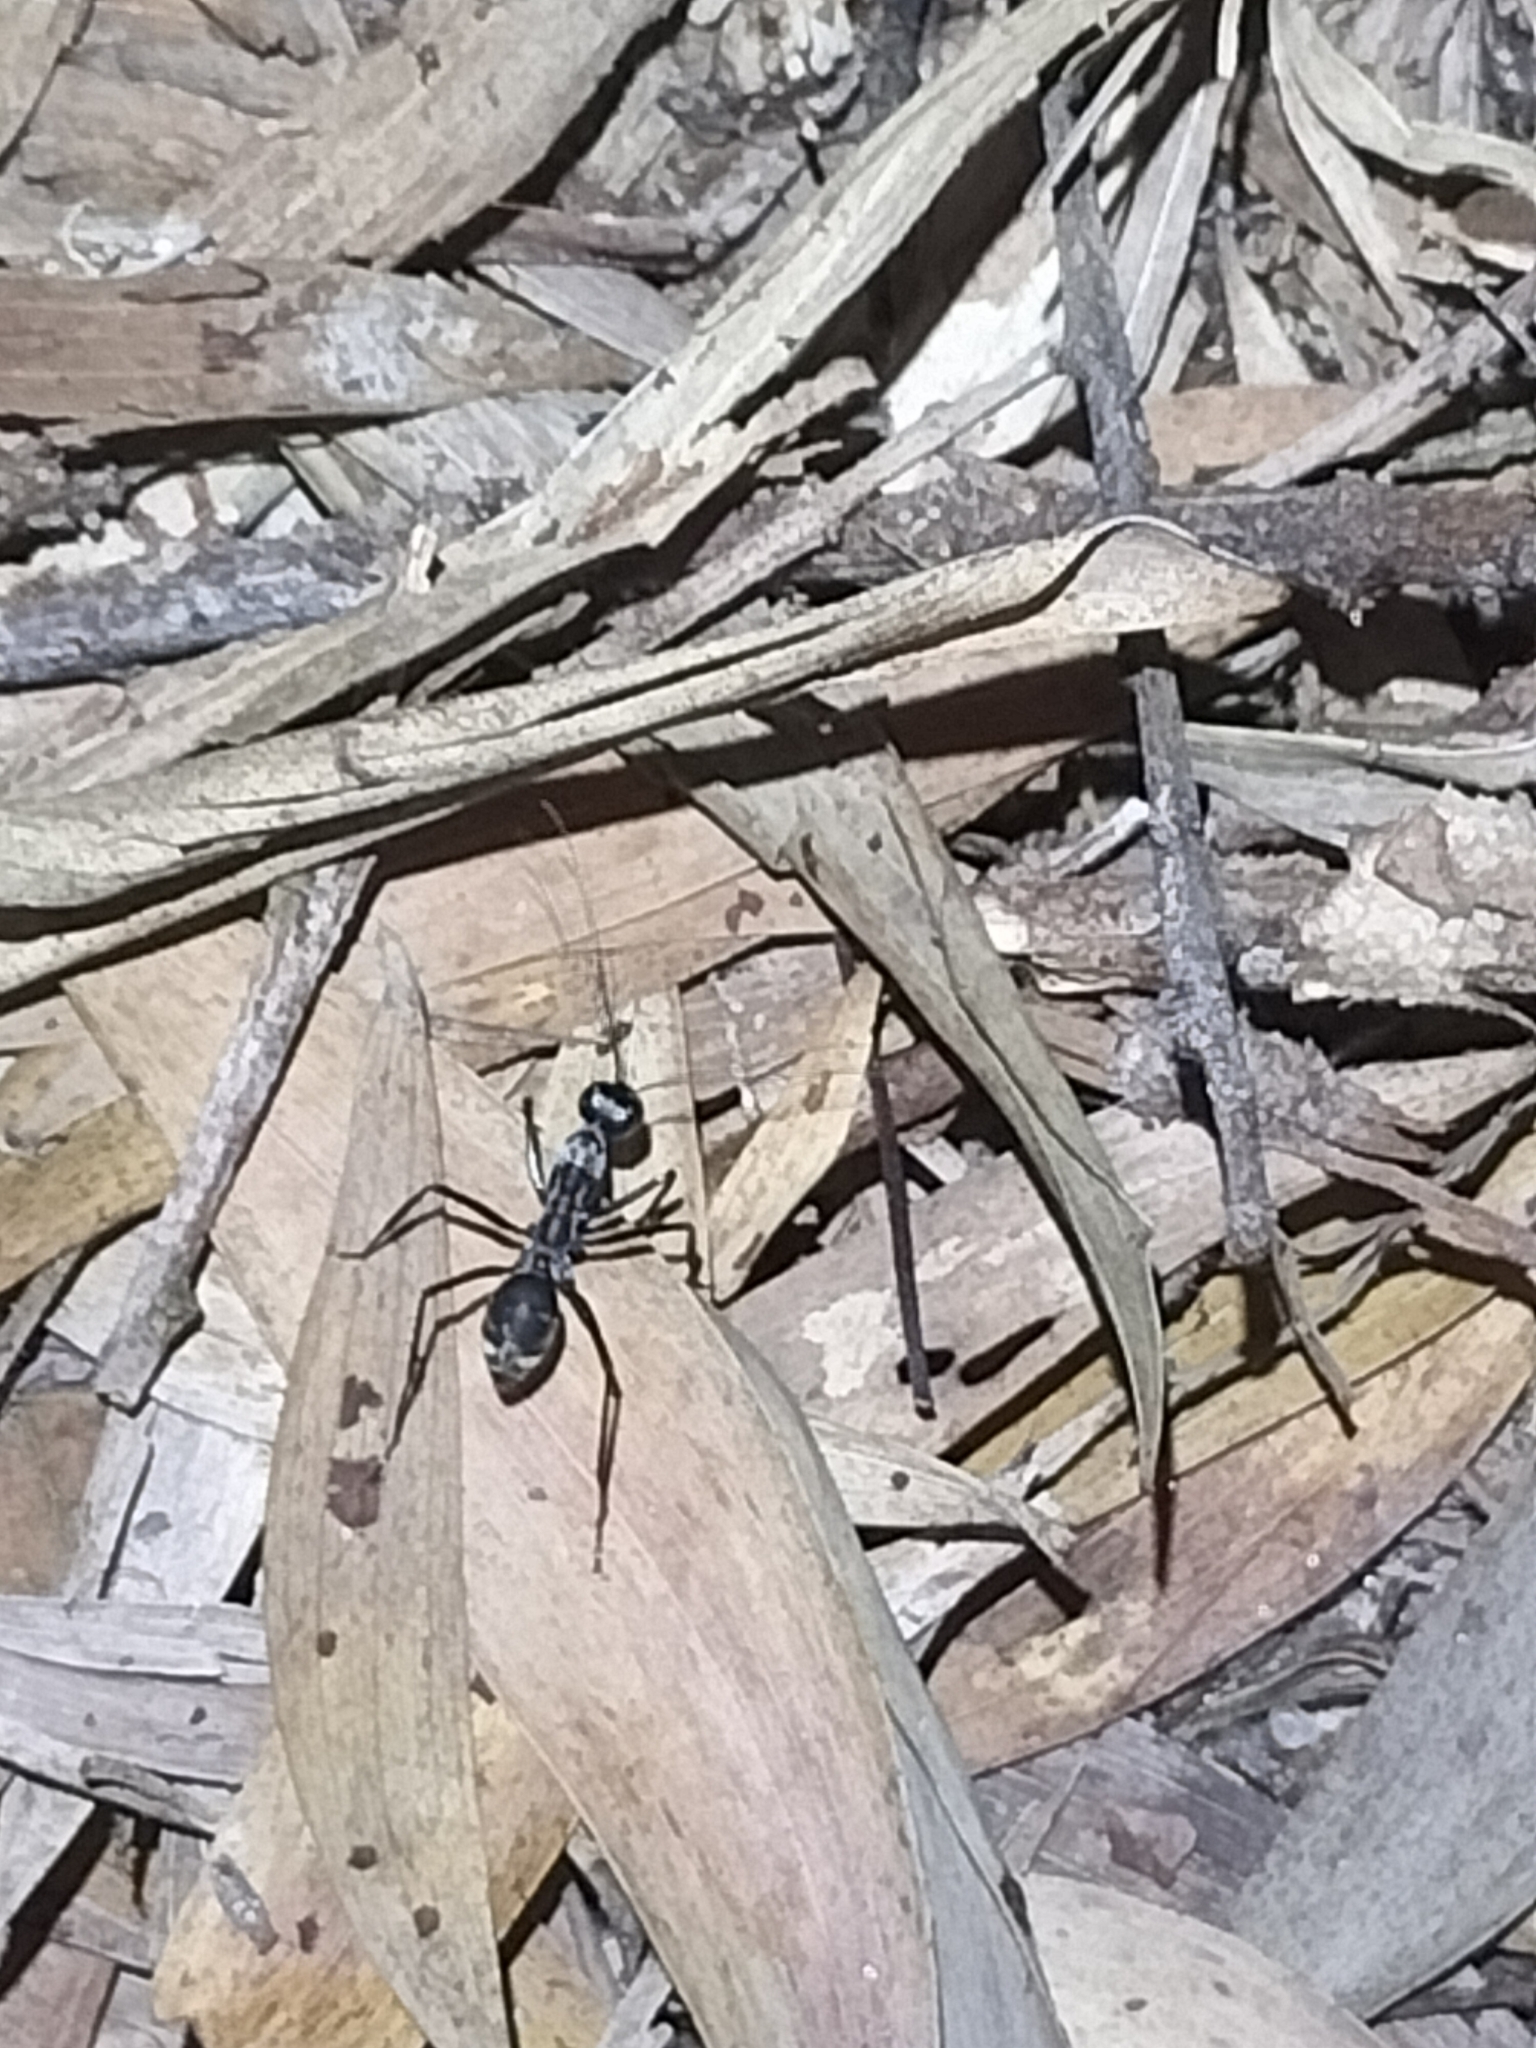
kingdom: Animalia
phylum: Arthropoda
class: Insecta
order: Hymenoptera
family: Formicidae
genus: Notostigma
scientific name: Notostigma carazzii
